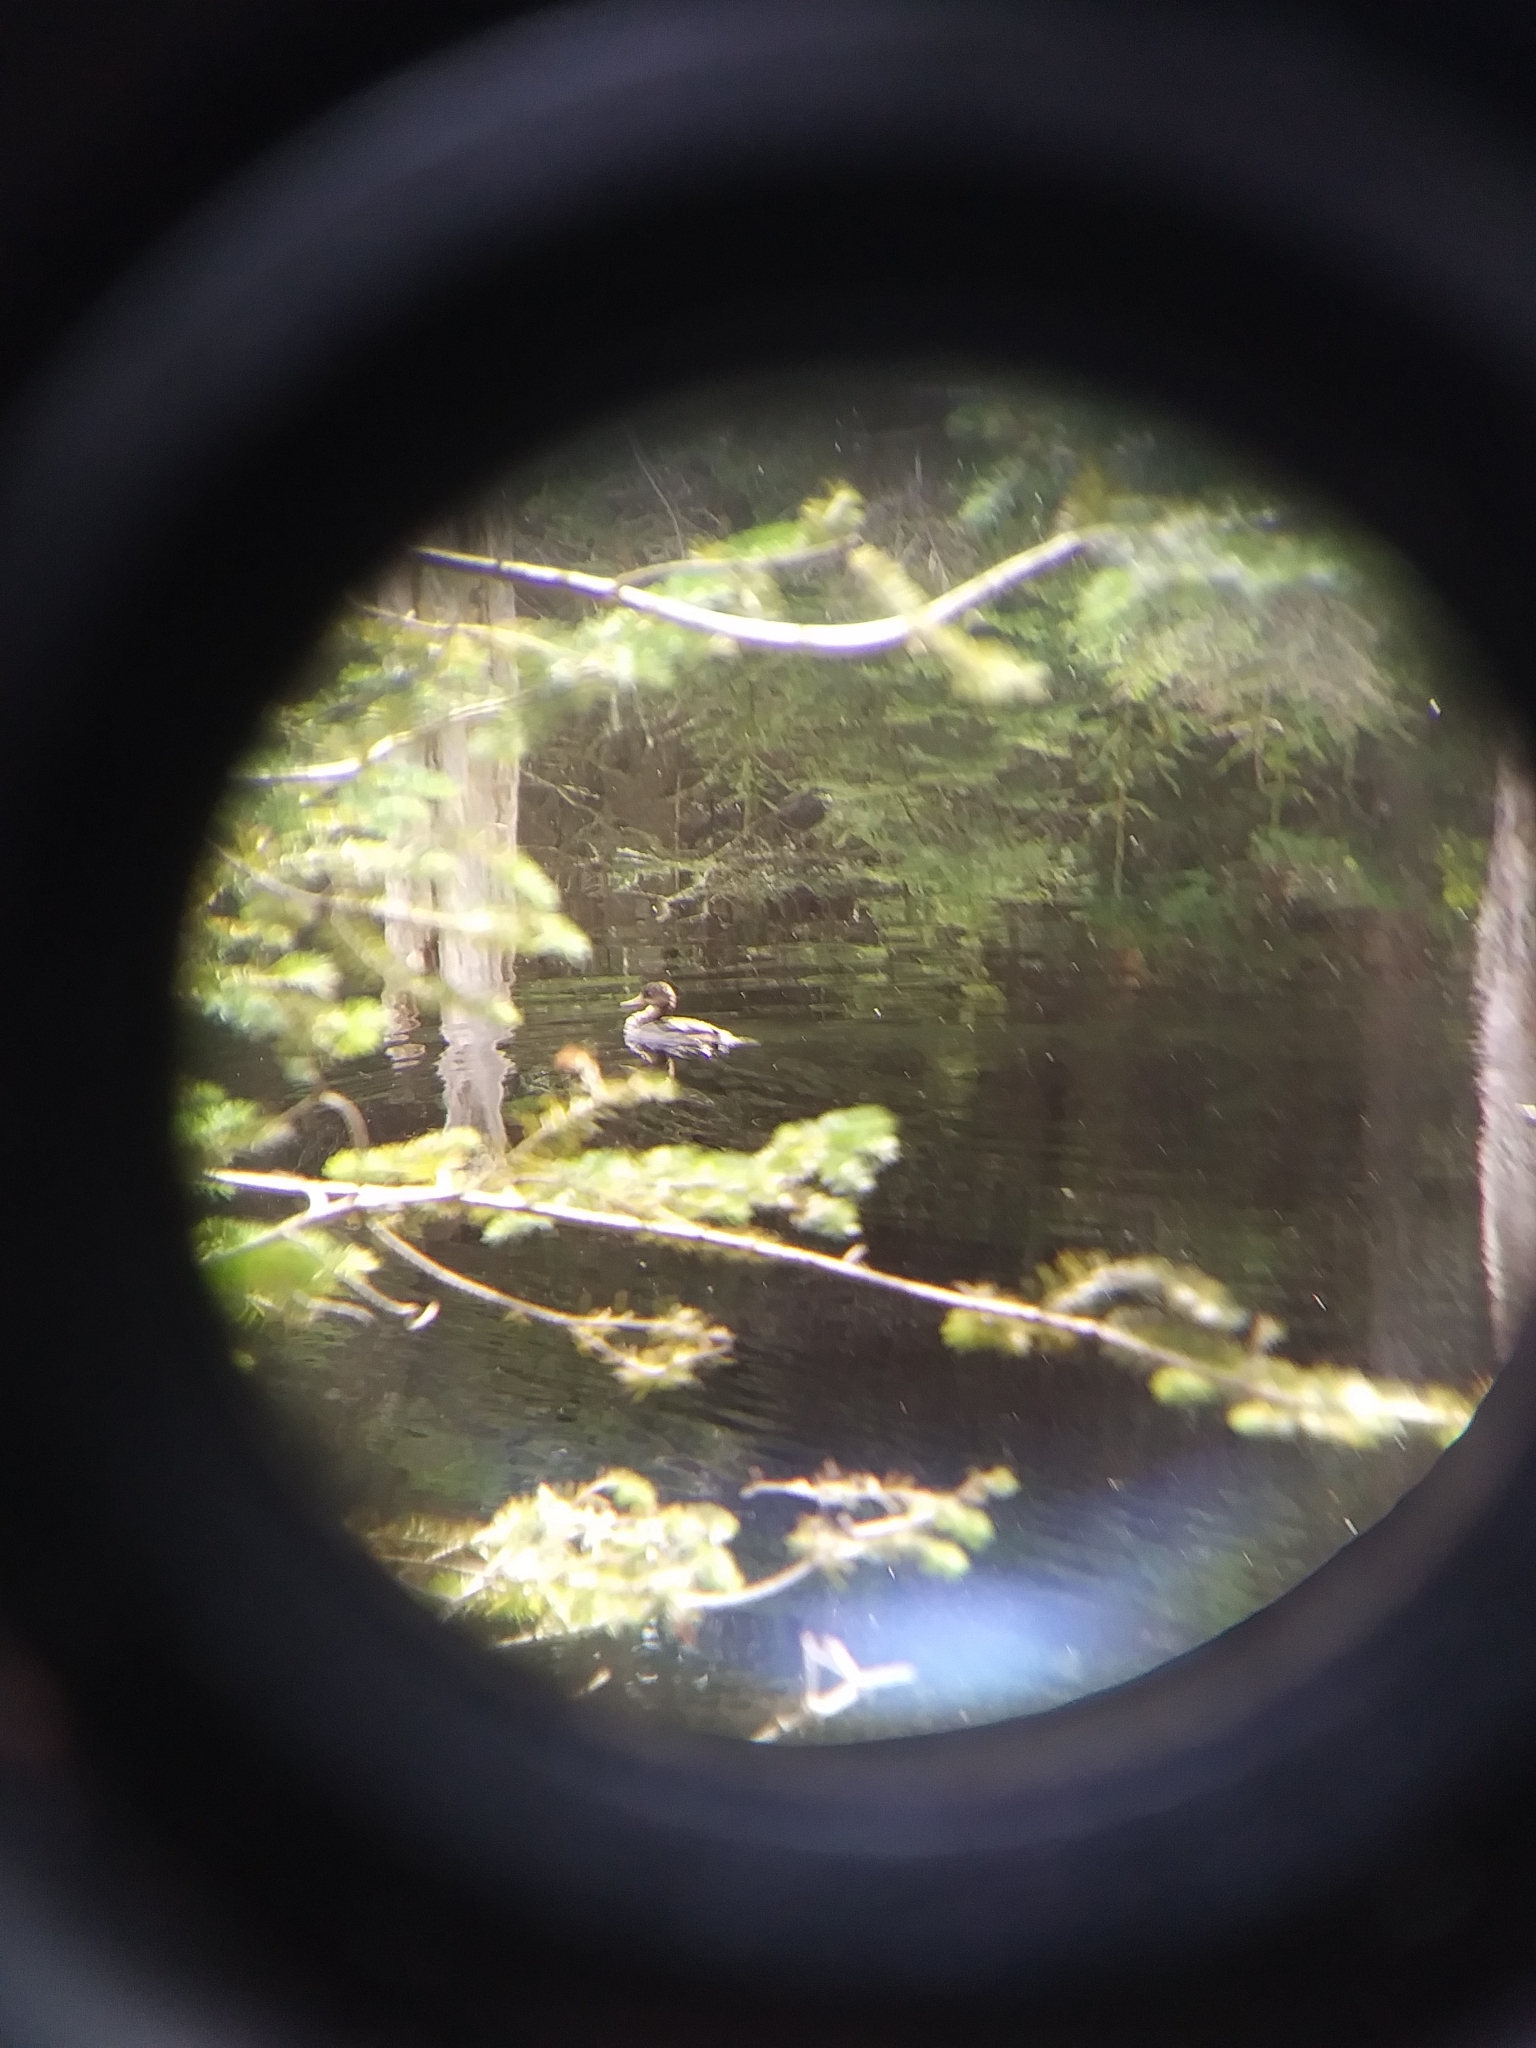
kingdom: Animalia
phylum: Chordata
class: Aves
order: Anseriformes
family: Anatidae
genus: Lophodytes
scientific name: Lophodytes cucullatus
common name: Hooded merganser
